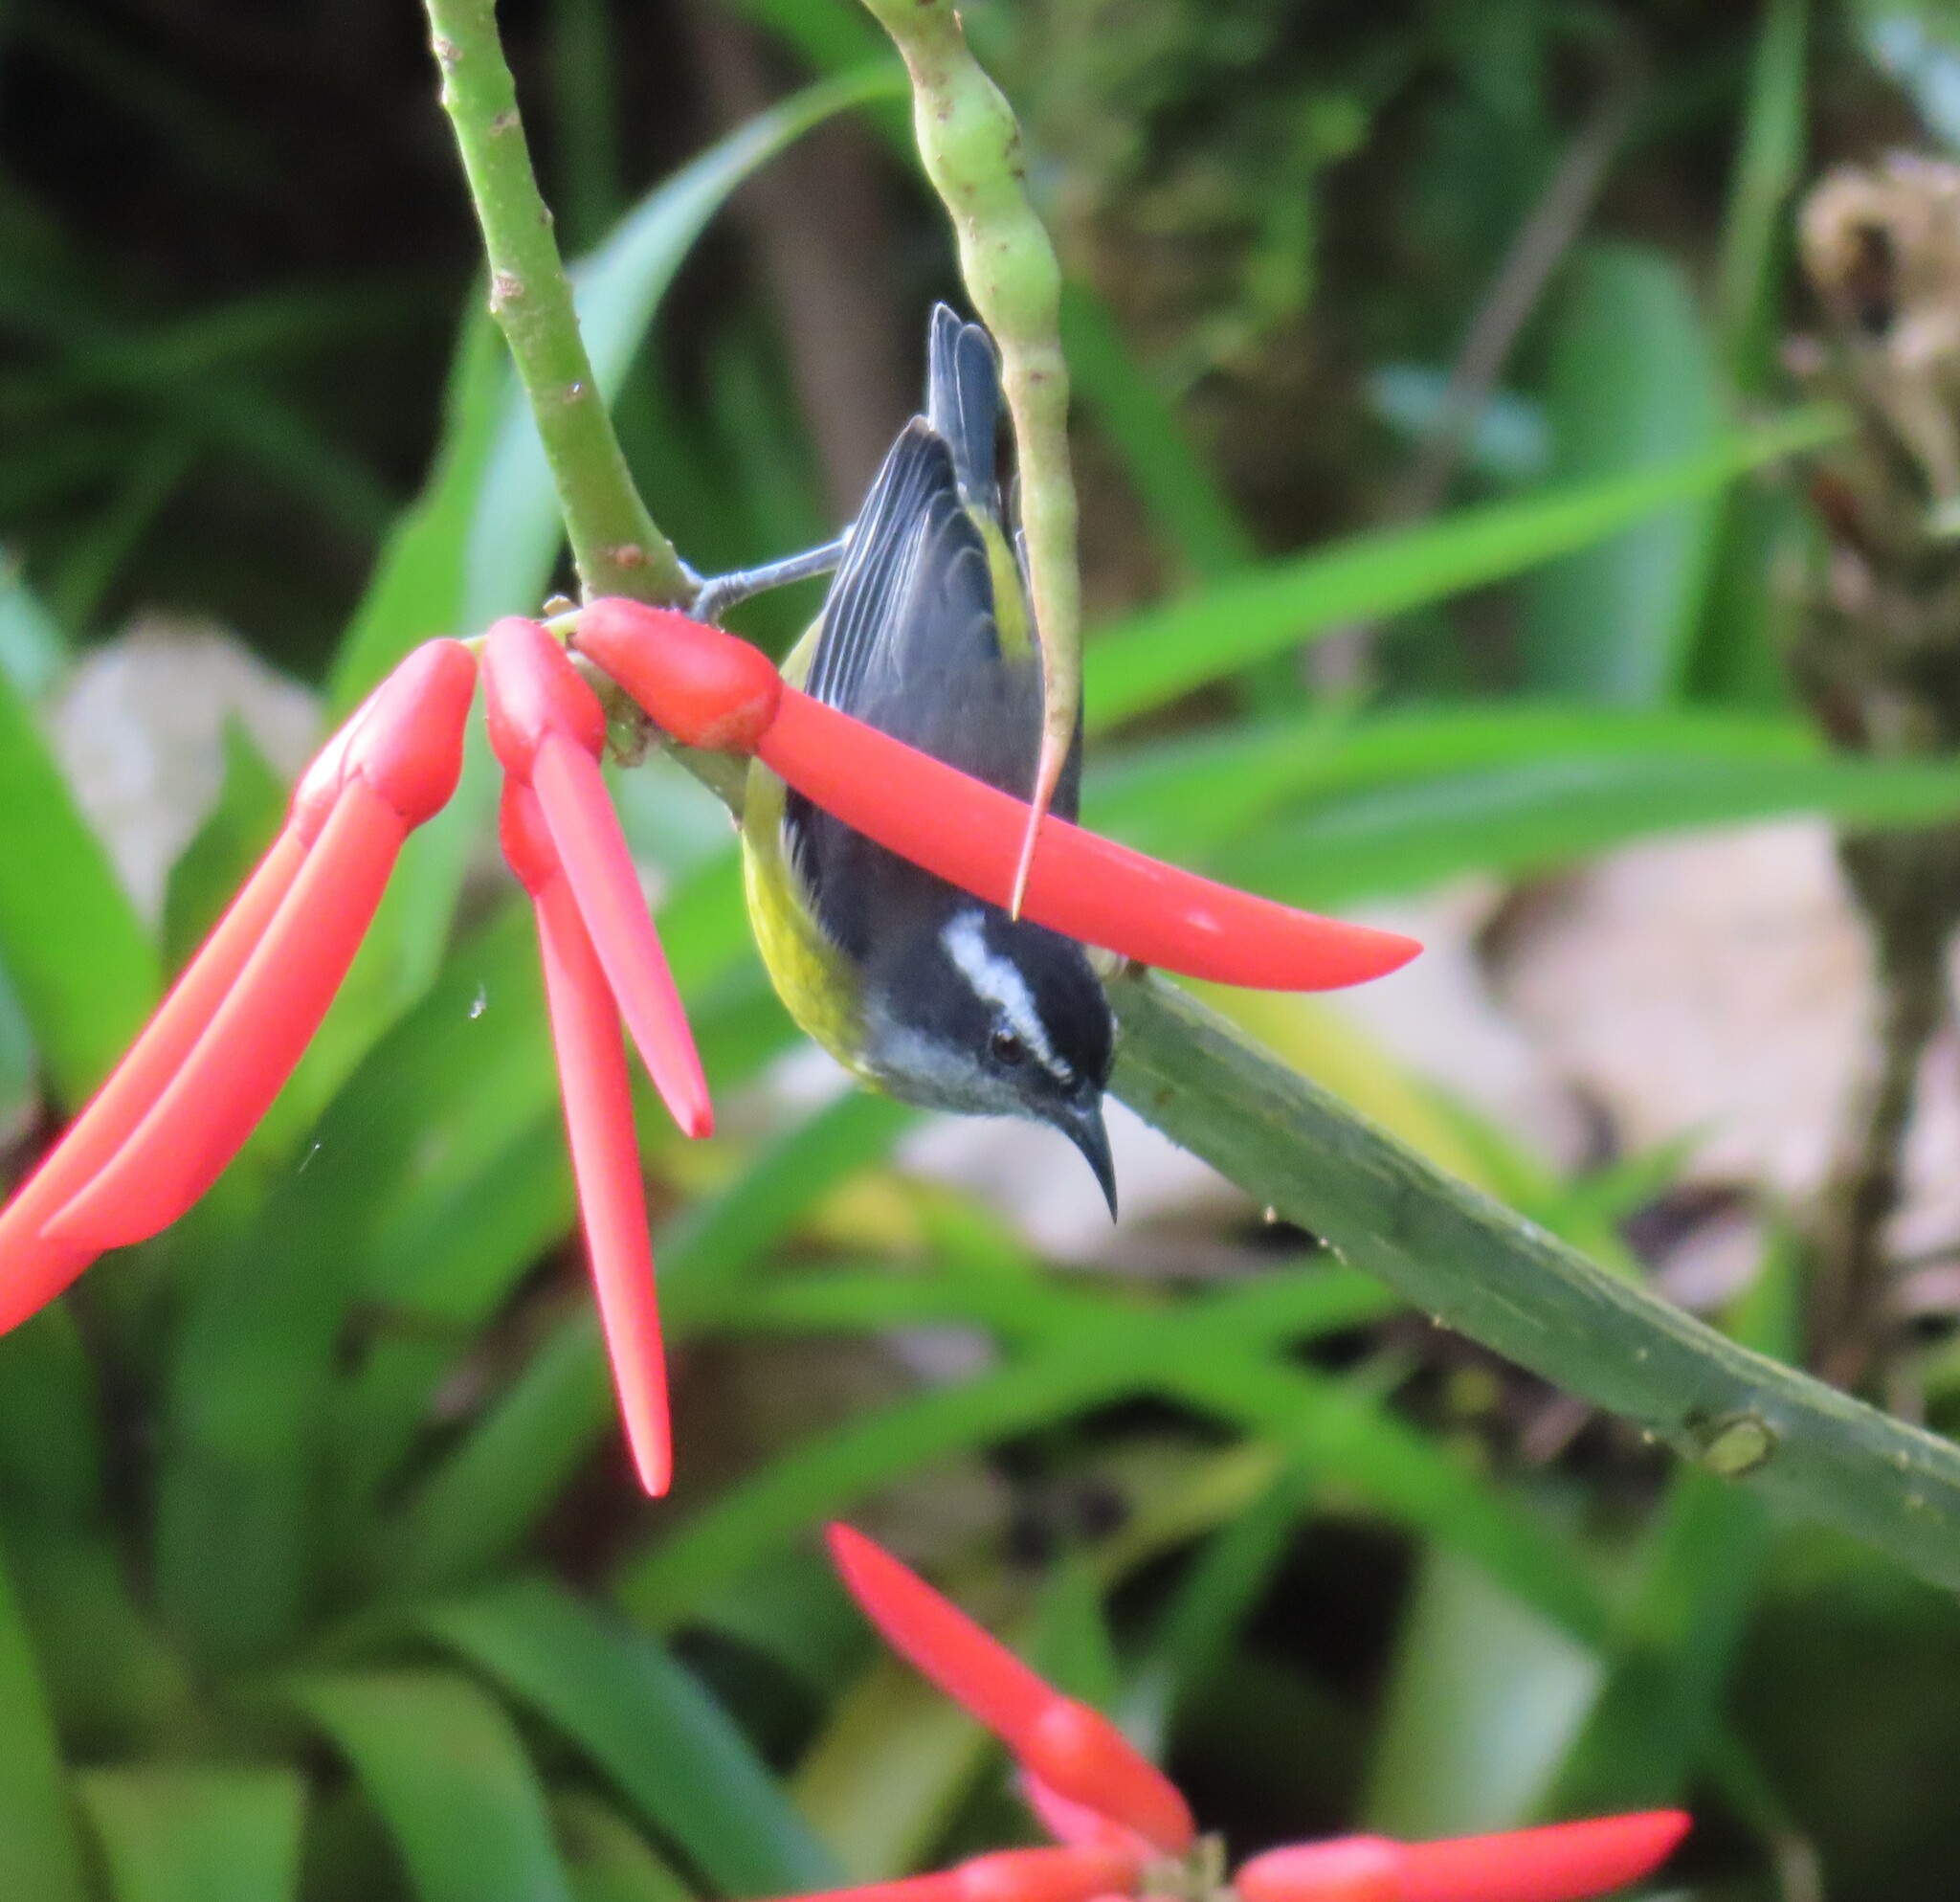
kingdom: Animalia
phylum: Chordata
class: Aves
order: Passeriformes
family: Thraupidae
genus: Coereba
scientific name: Coereba flaveola
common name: Bananaquit
